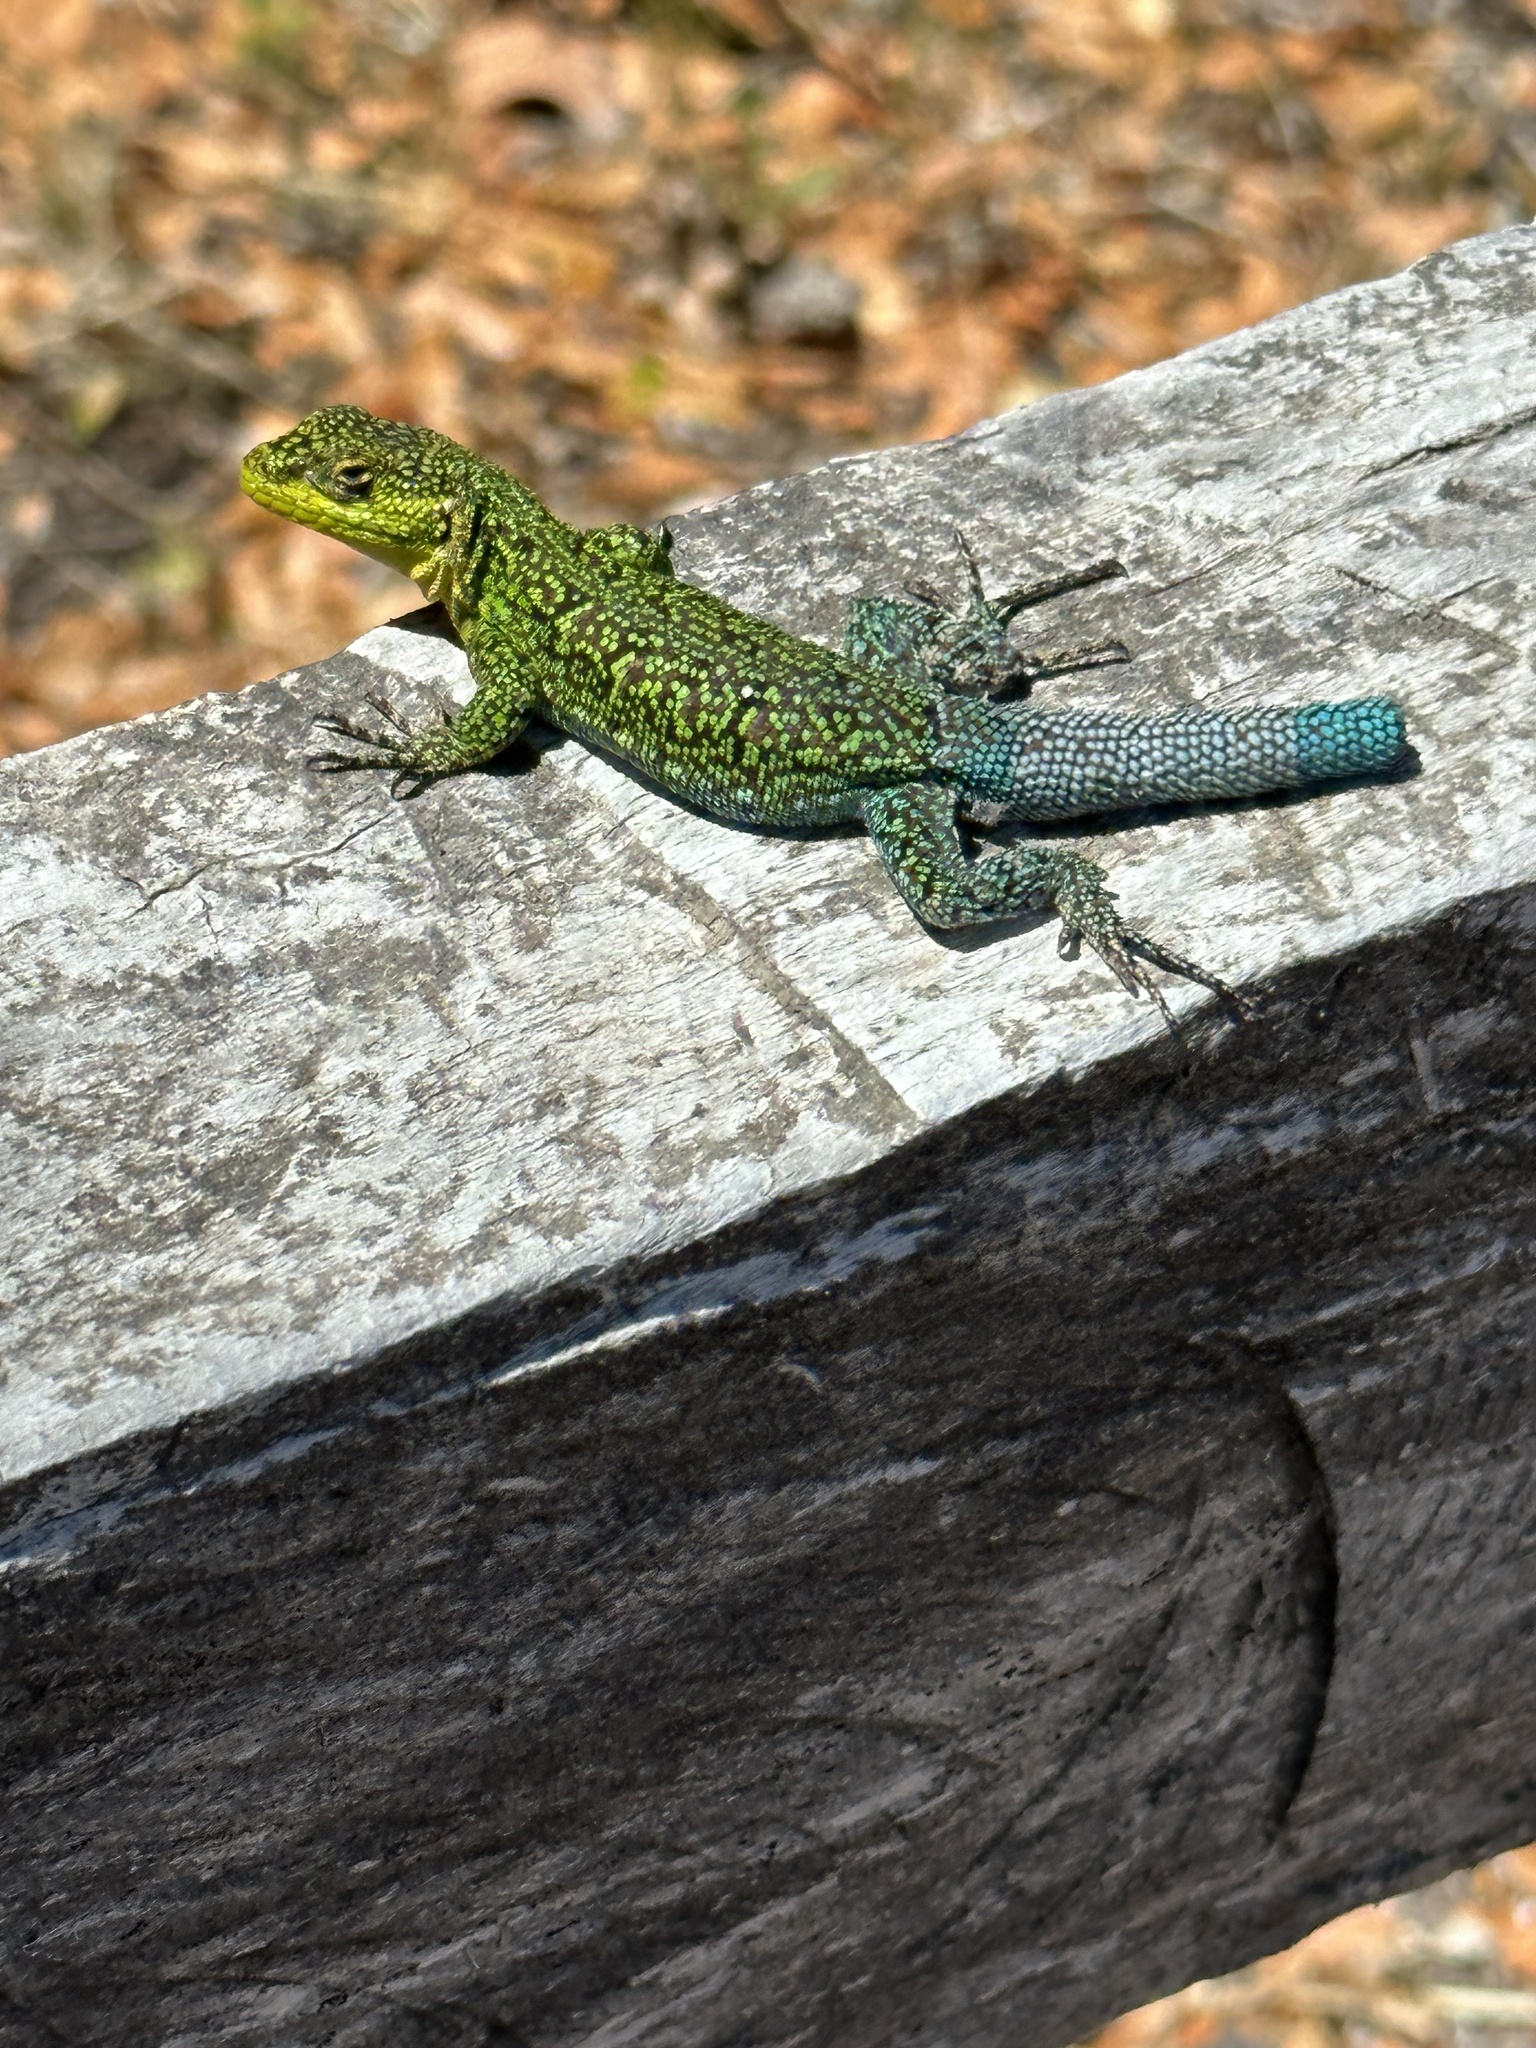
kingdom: Animalia
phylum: Chordata
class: Squamata
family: Liolaemidae
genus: Liolaemus
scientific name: Liolaemus tenuis
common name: Thin tree iguana
